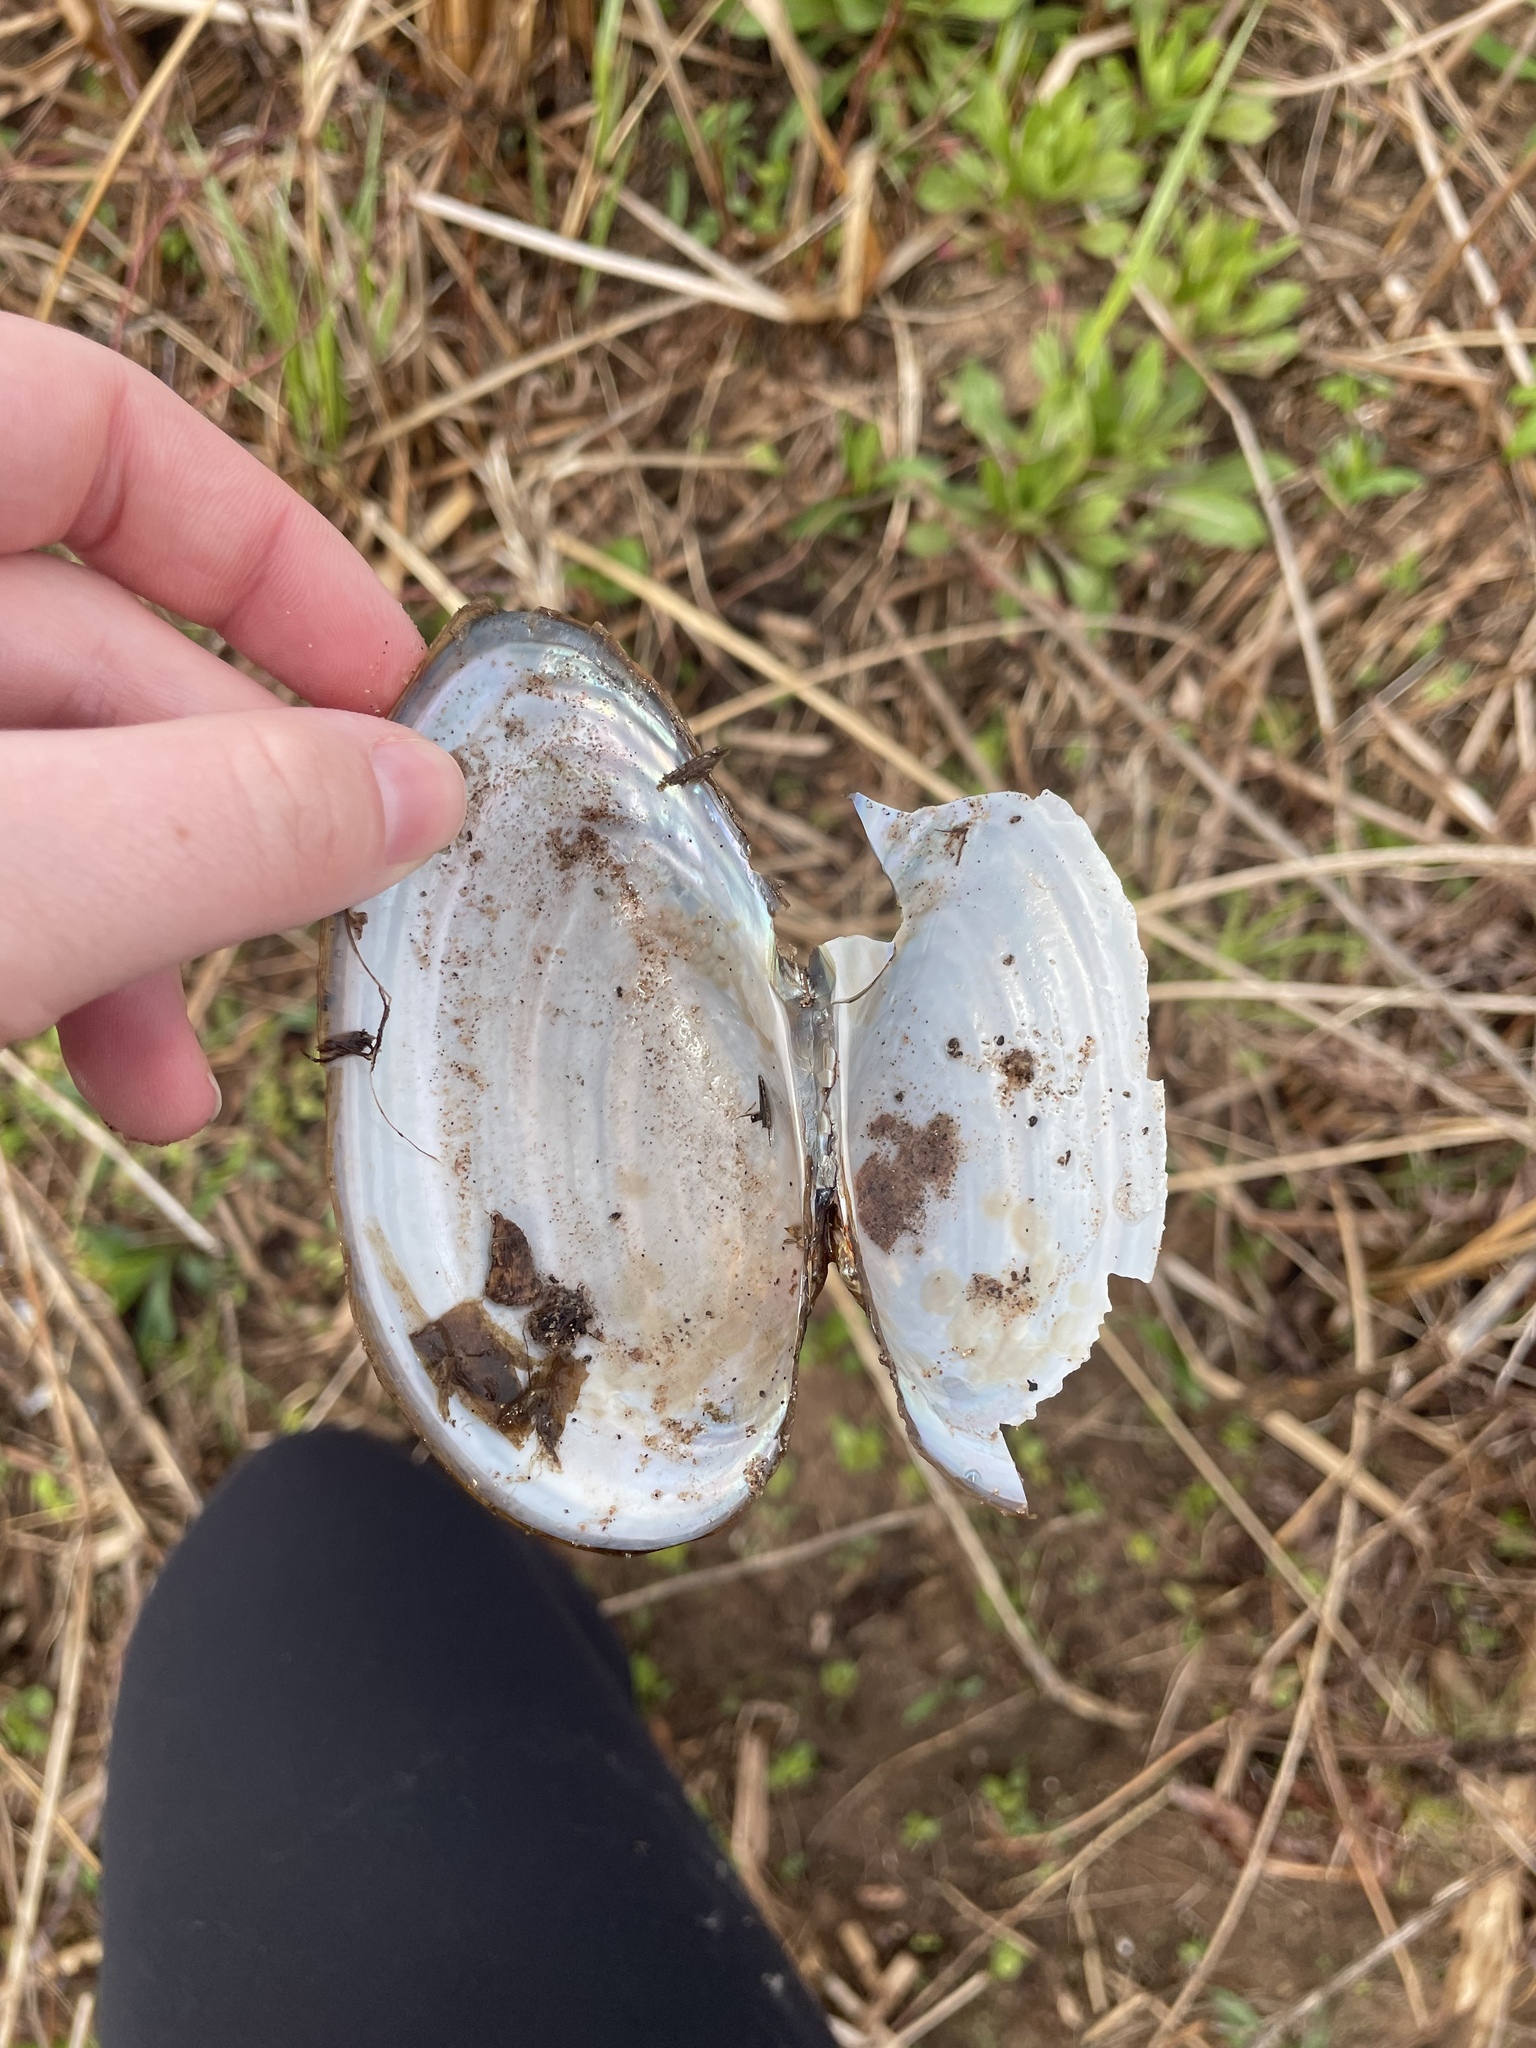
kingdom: Animalia
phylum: Mollusca
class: Bivalvia
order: Unionida
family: Unionidae
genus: Pyganodon
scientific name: Pyganodon cataracta
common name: Eastern floater
